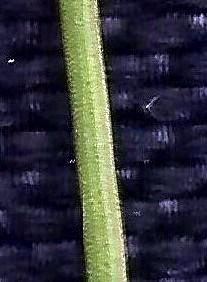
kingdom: Plantae
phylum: Tracheophyta
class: Liliopsida
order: Poales
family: Restionaceae
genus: Hypodiscus
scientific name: Hypodiscus striatus
